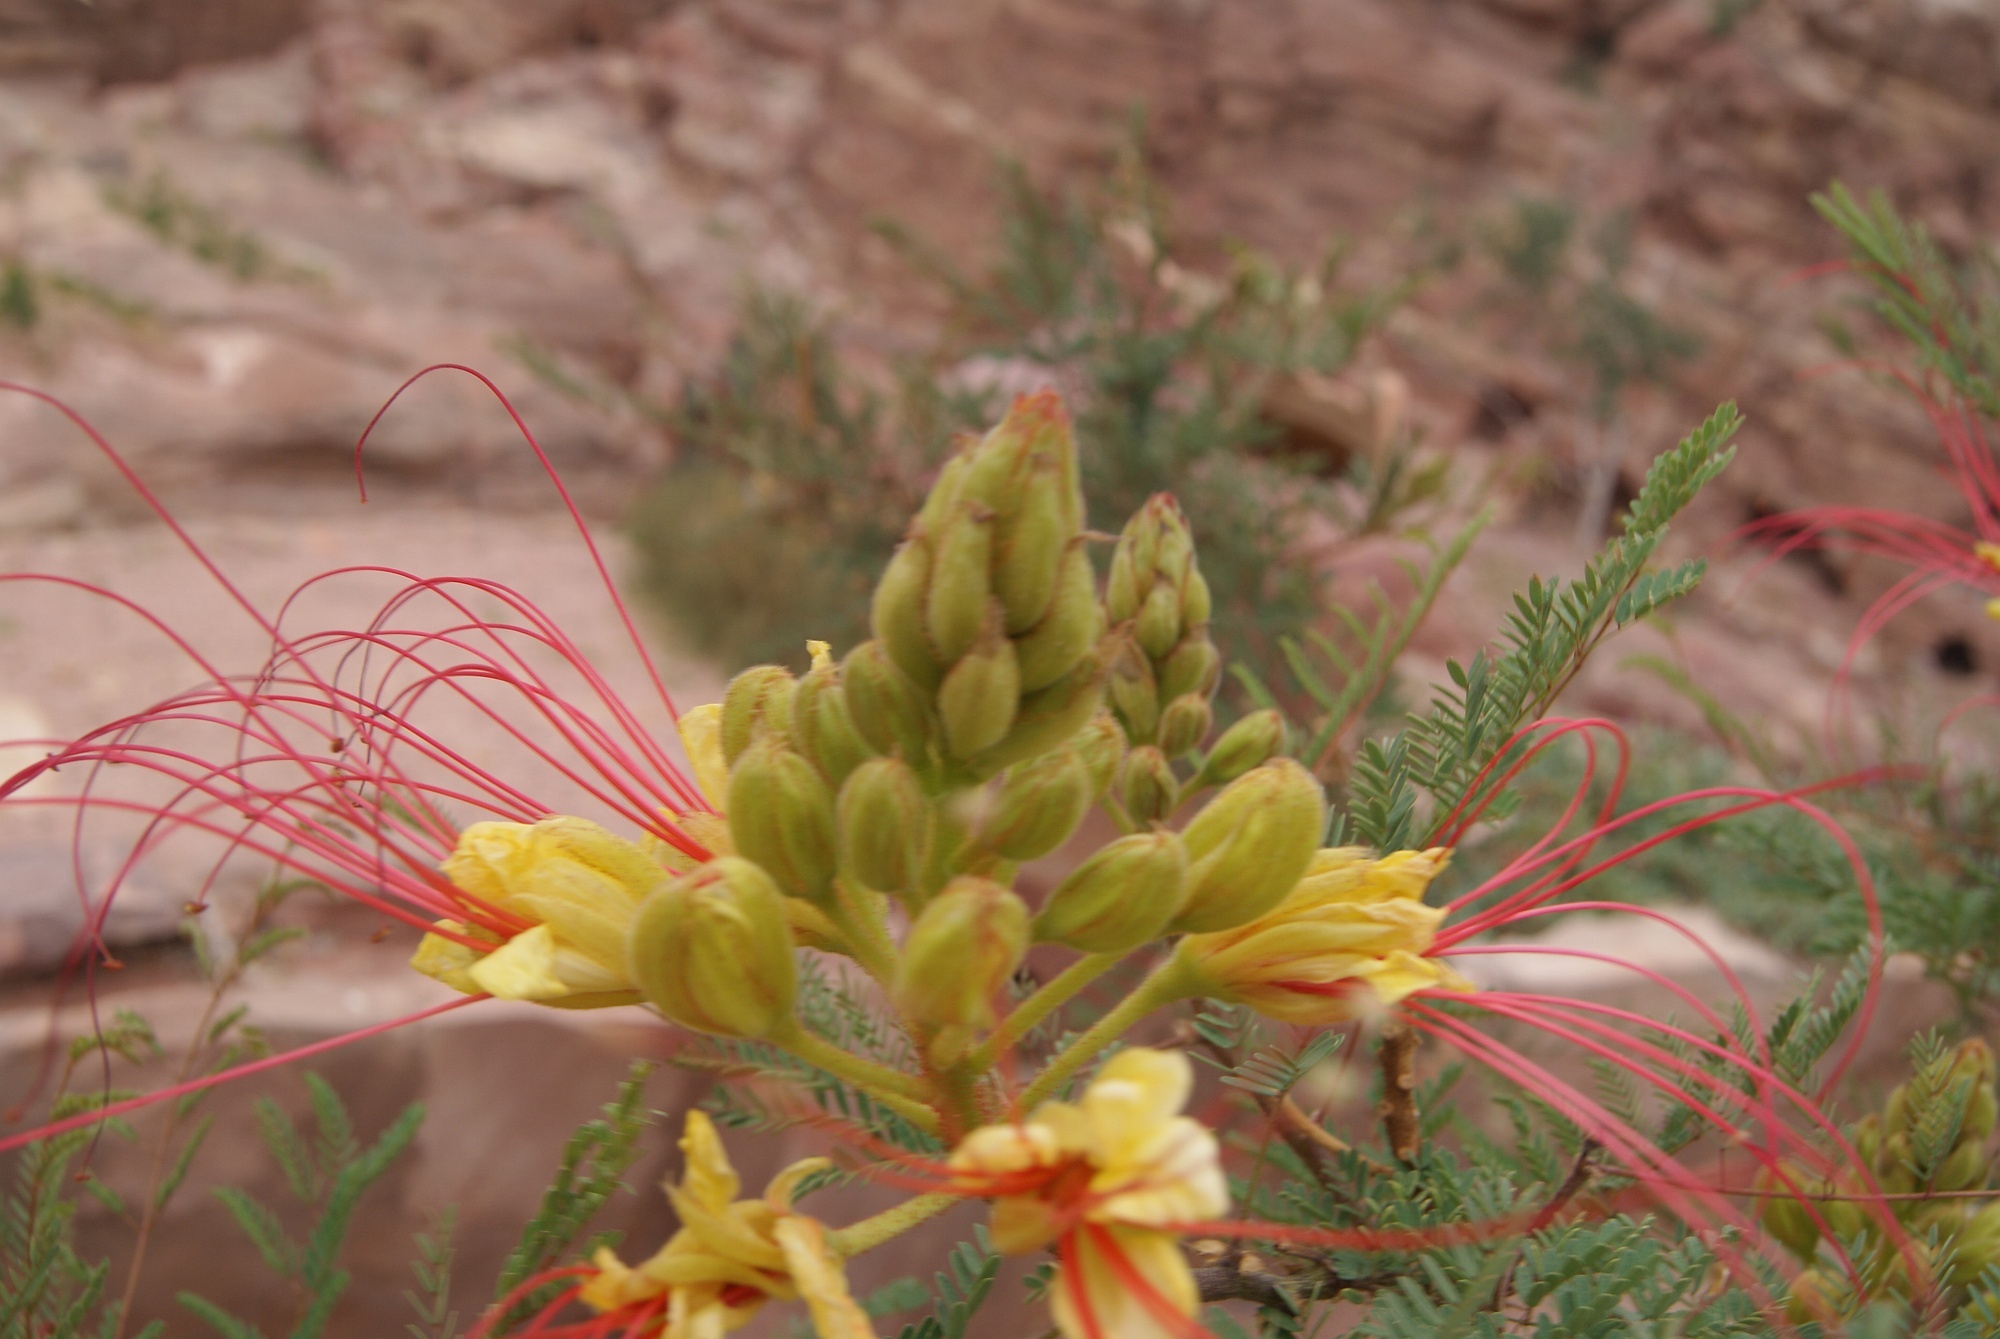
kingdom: Plantae
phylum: Tracheophyta
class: Magnoliopsida
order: Fabales
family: Fabaceae
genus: Erythrostemon
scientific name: Erythrostemon gilliesii
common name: Bird-of-paradise shrub
